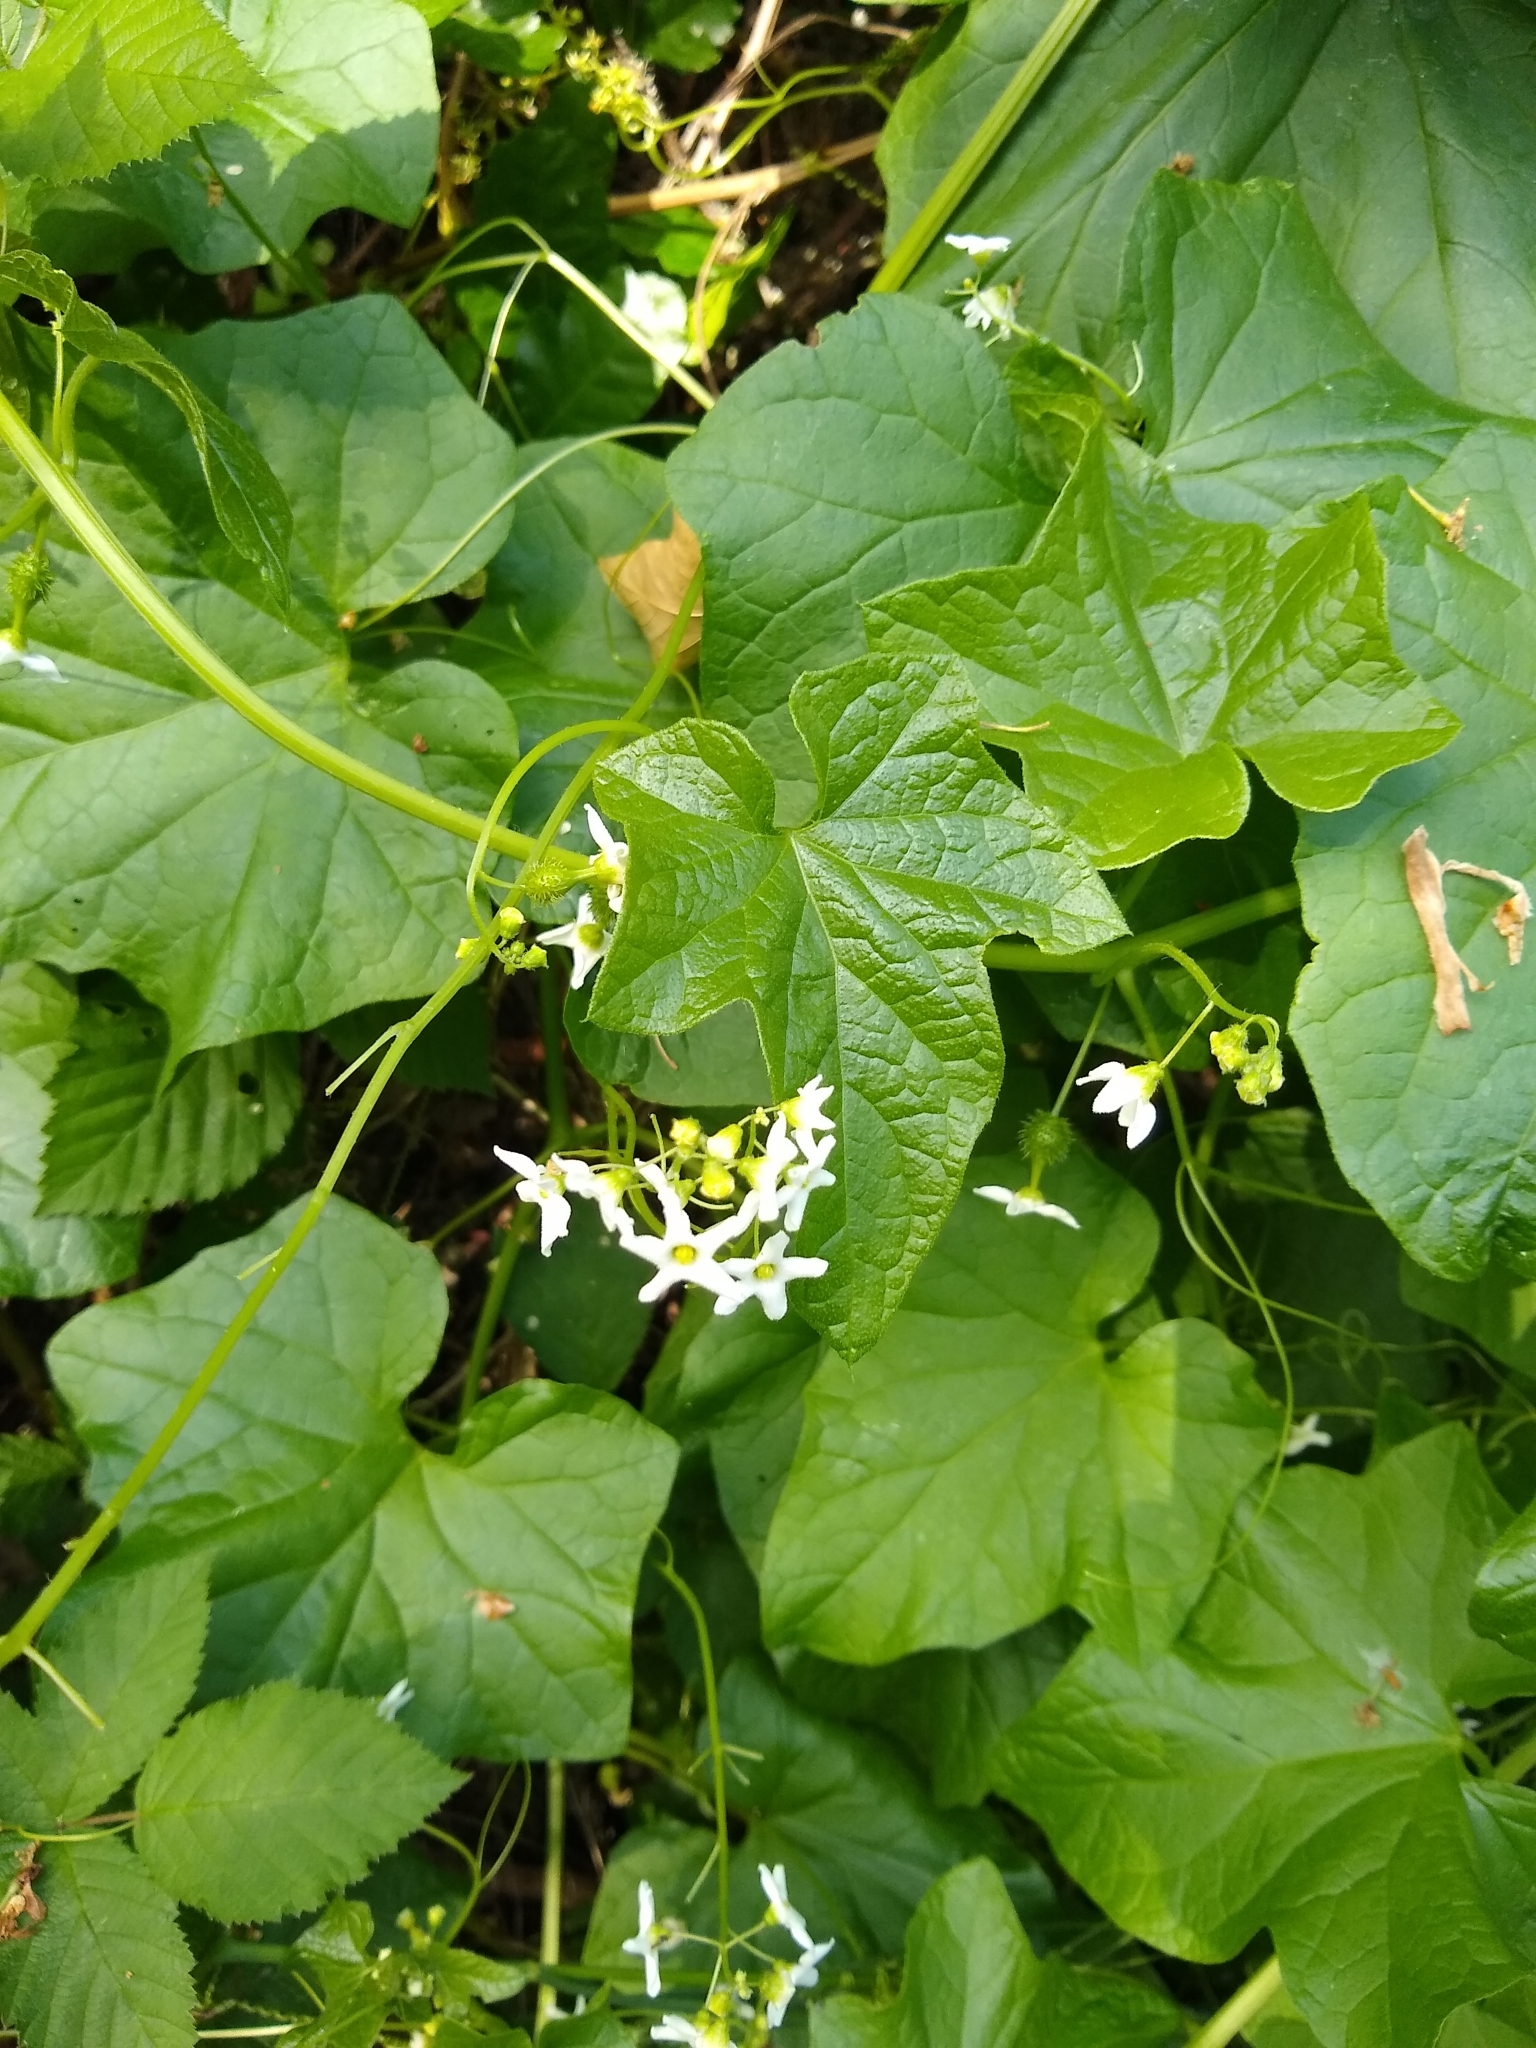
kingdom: Plantae
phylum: Tracheophyta
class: Magnoliopsida
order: Cucurbitales
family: Cucurbitaceae
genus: Marah
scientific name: Marah oregana
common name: Coastal manroot
